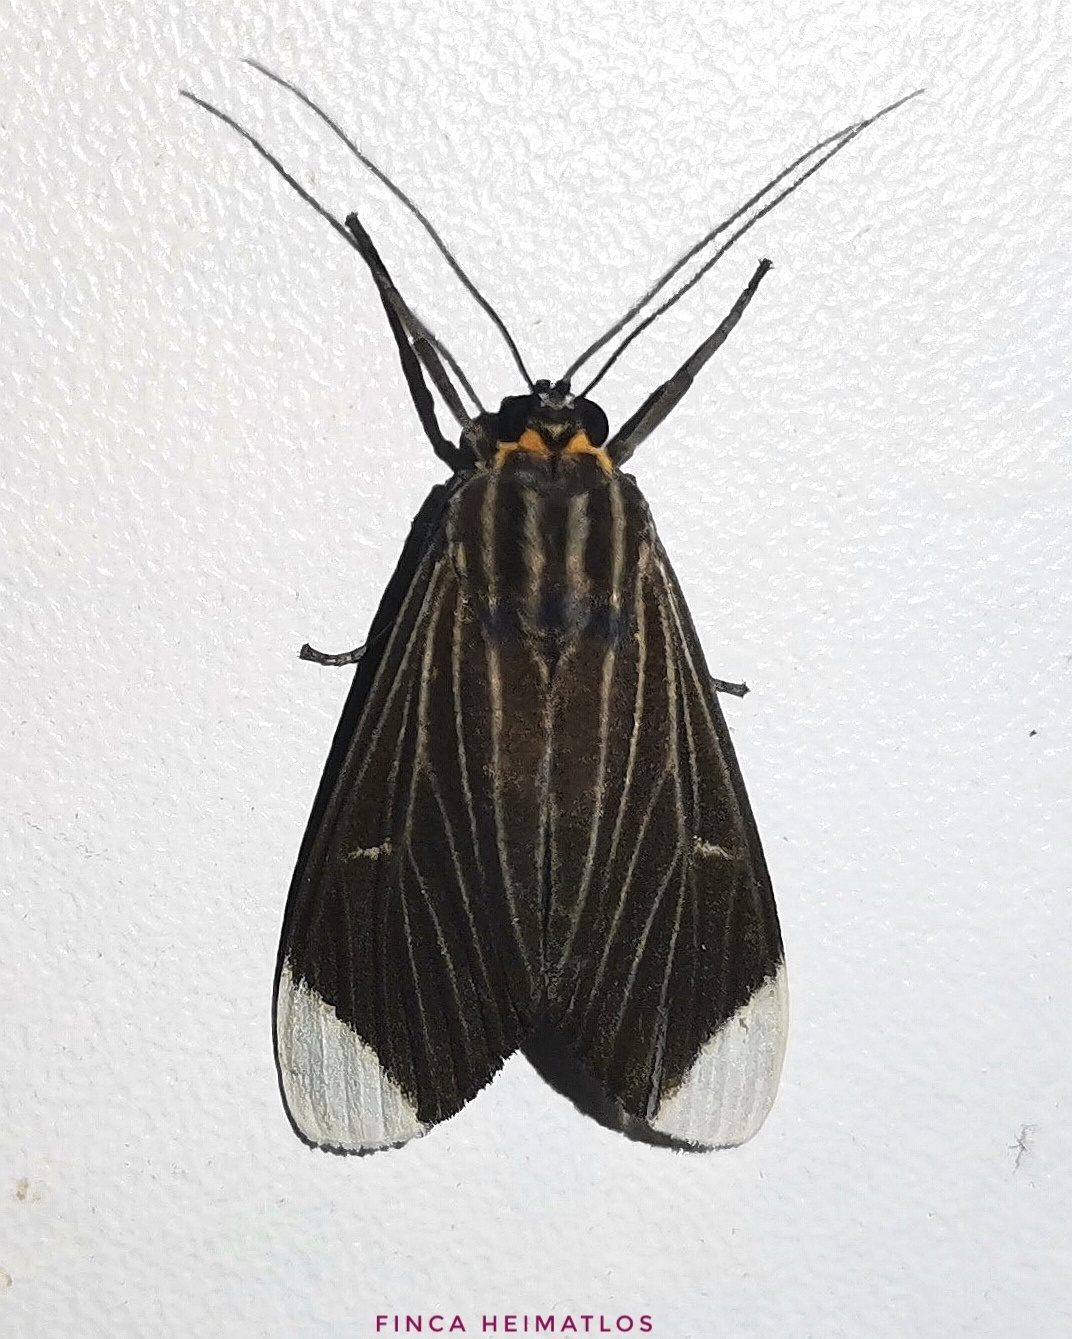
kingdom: Animalia
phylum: Arthropoda
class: Insecta
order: Lepidoptera
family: Erebidae
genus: Episcepsis
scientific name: Episcepsis capyscoides
